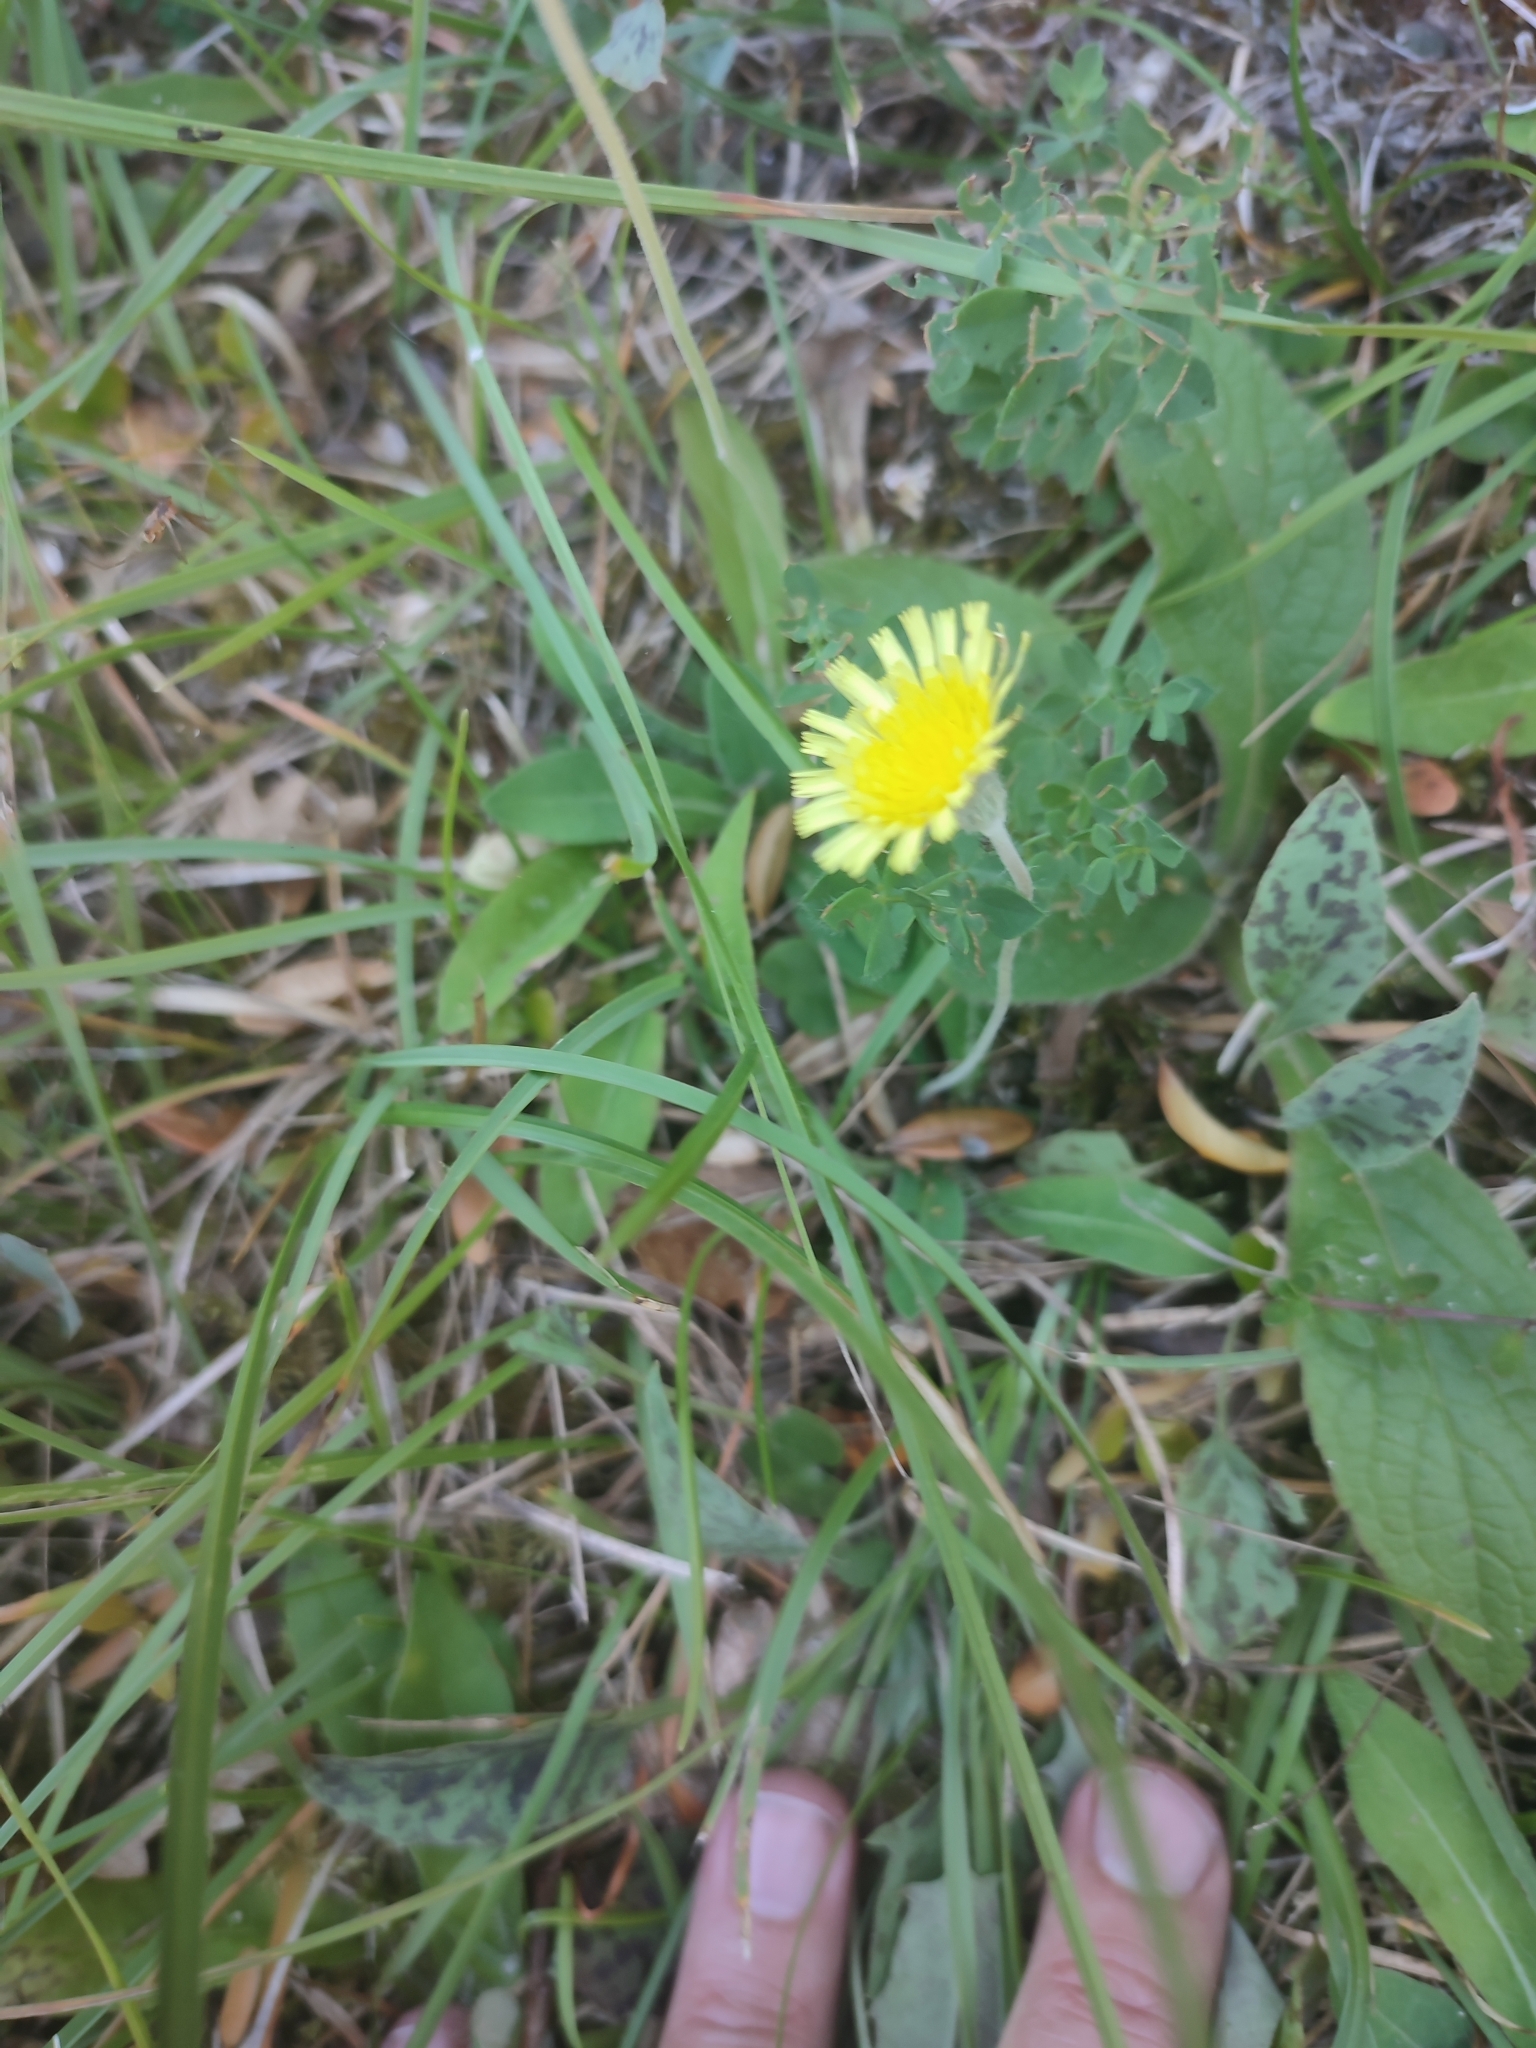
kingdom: Plantae
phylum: Tracheophyta
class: Magnoliopsida
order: Asterales
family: Asteraceae
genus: Pilosella
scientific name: Pilosella officinarum
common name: Mouse-ear hawkweed
